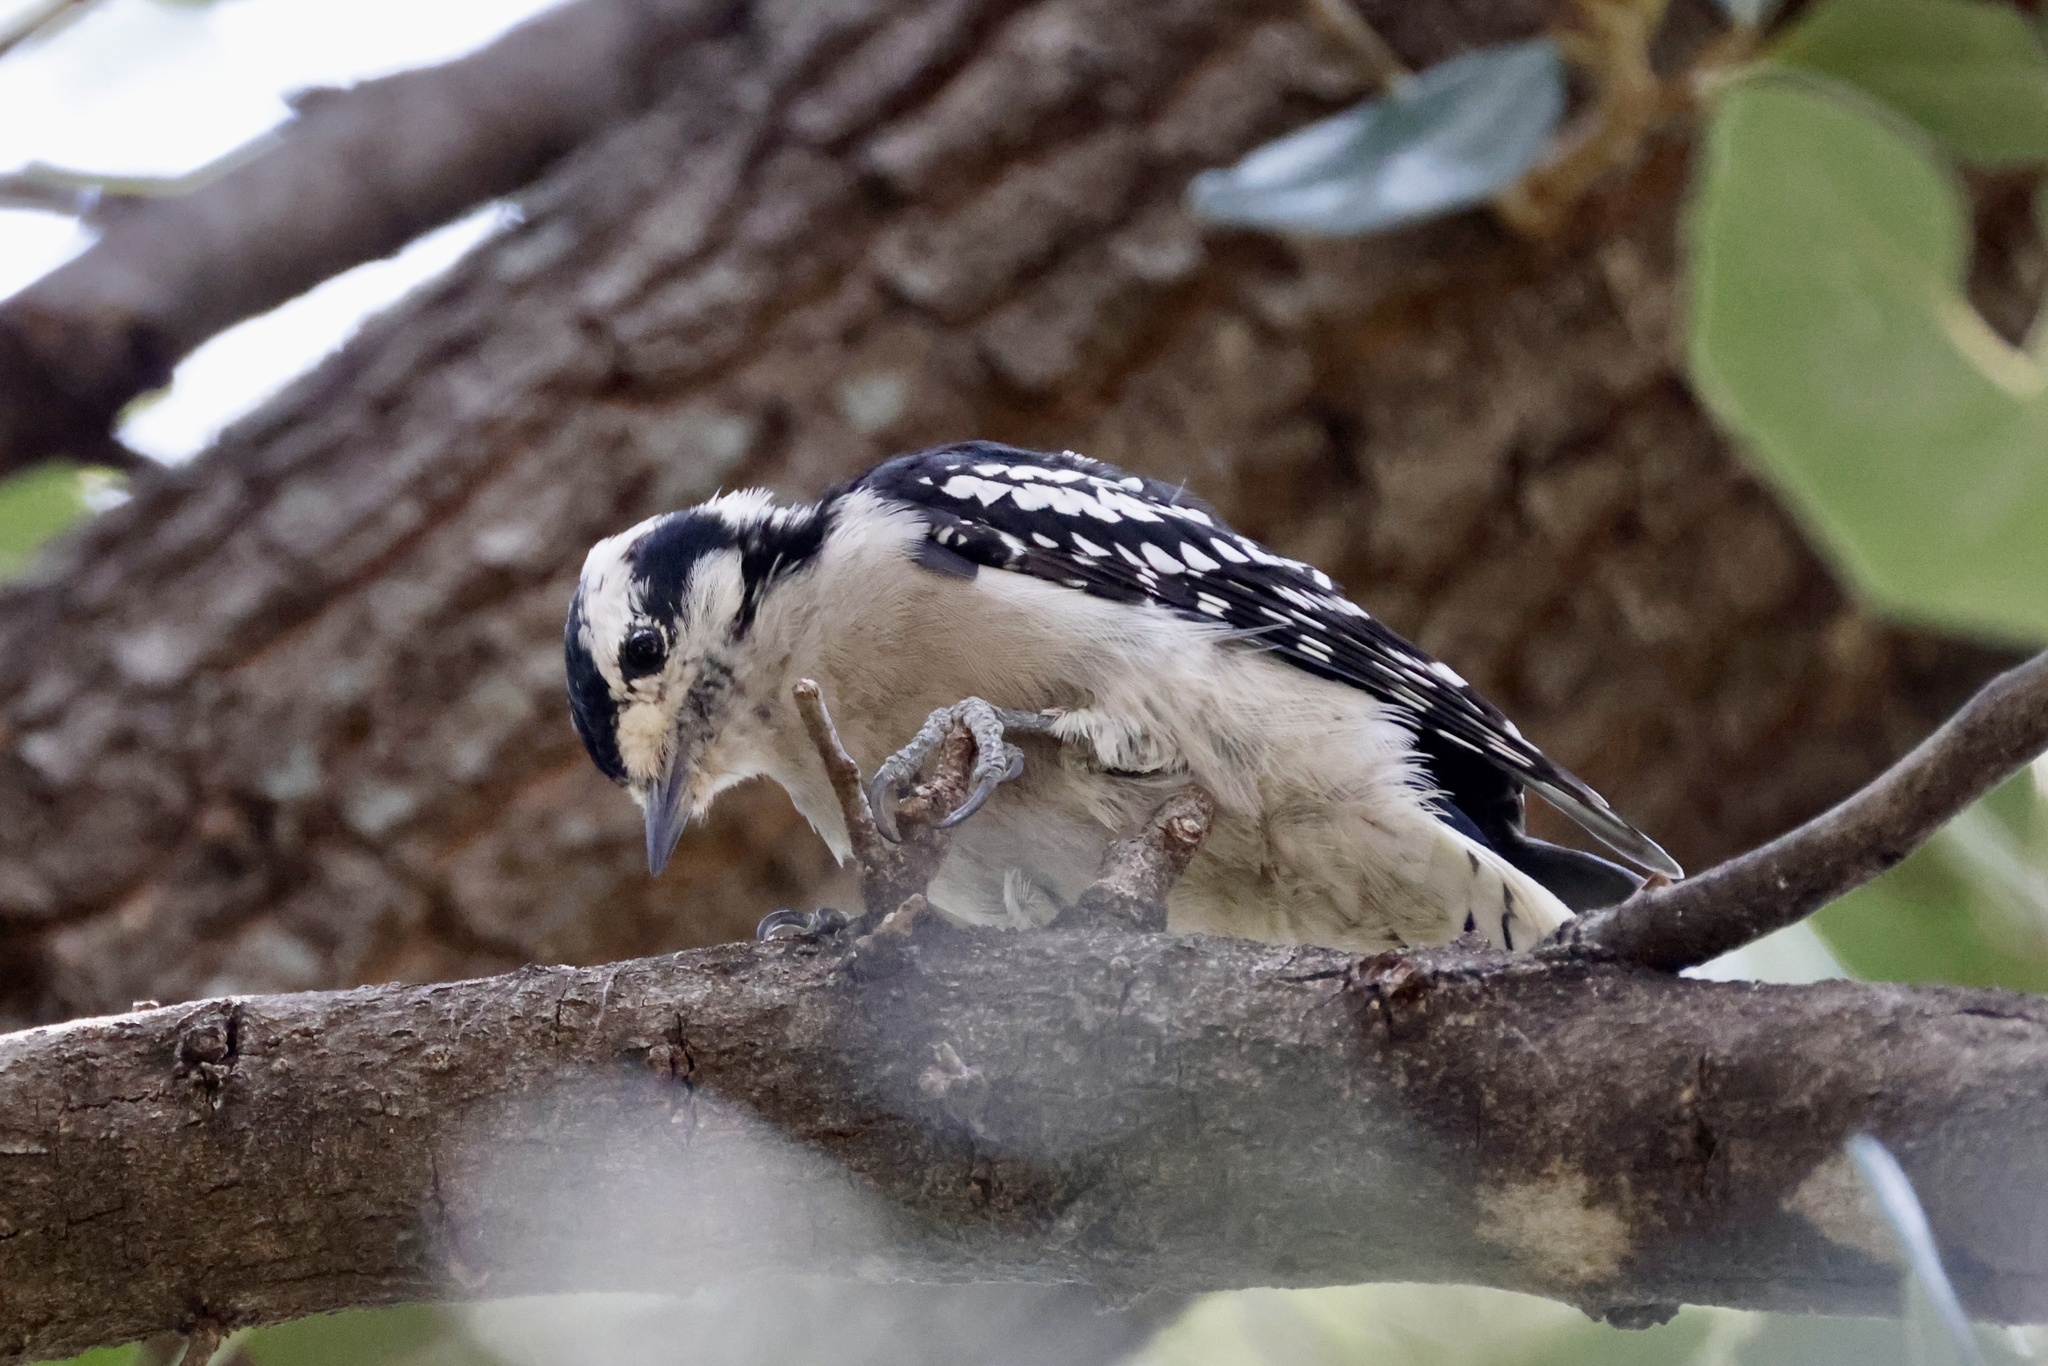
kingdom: Animalia
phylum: Chordata
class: Aves
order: Piciformes
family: Picidae
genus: Dryobates
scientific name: Dryobates pubescens
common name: Downy woodpecker
